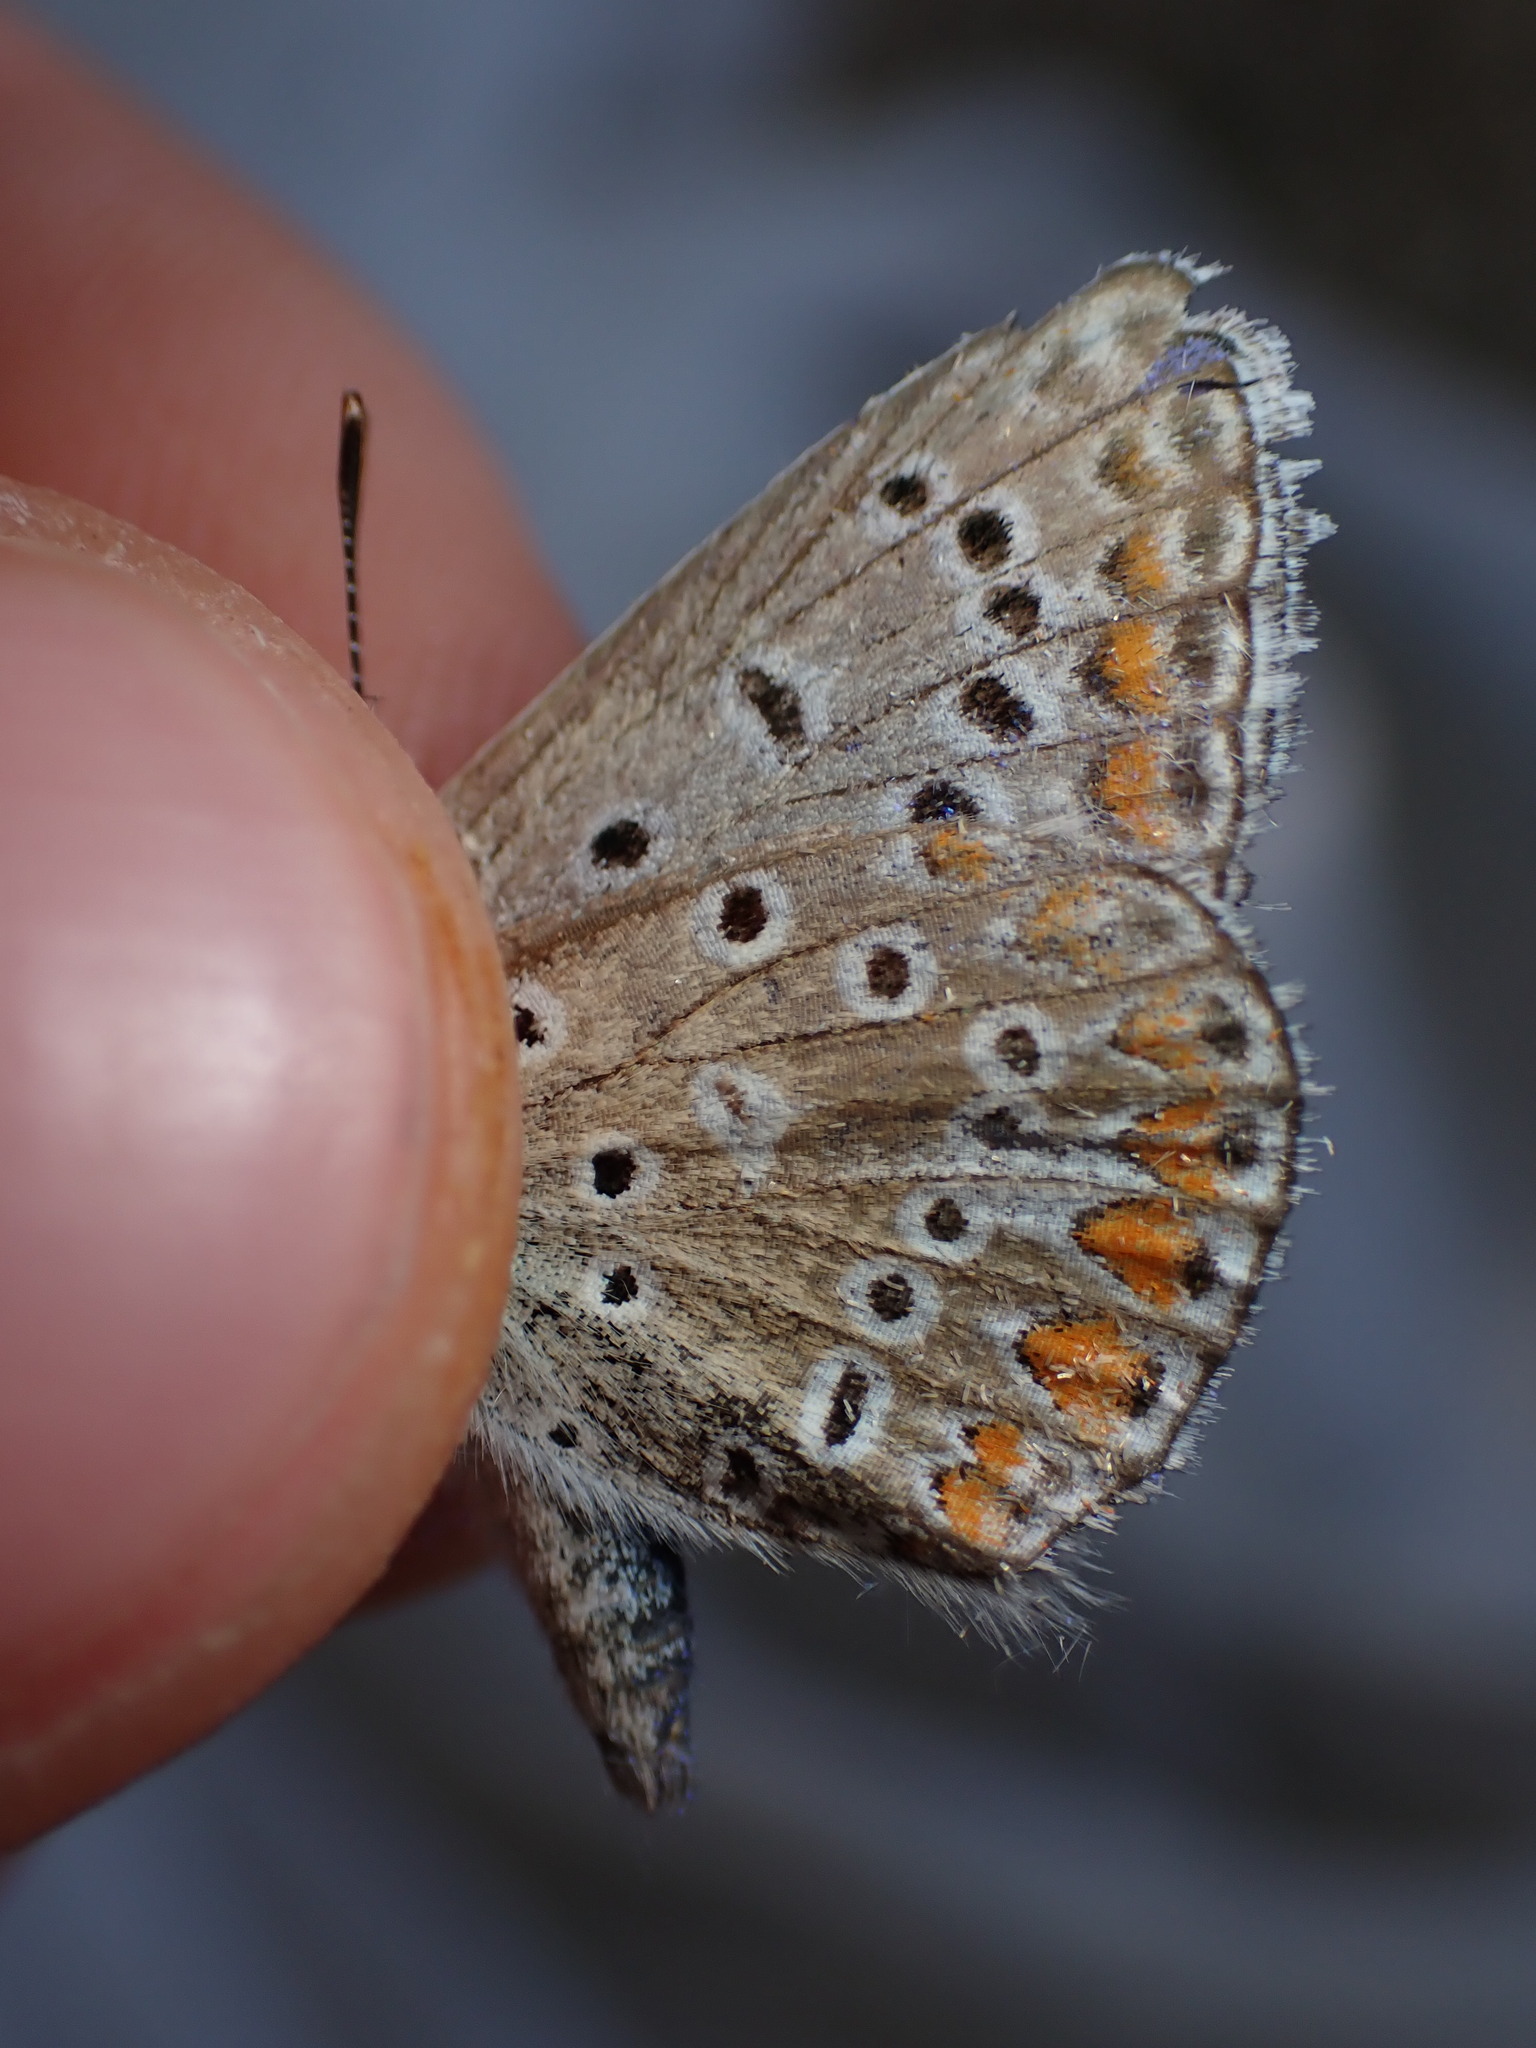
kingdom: Animalia
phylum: Arthropoda
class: Insecta
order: Lepidoptera
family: Lycaenidae
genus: Polyommatus
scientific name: Polyommatus icarus
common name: Common blue
